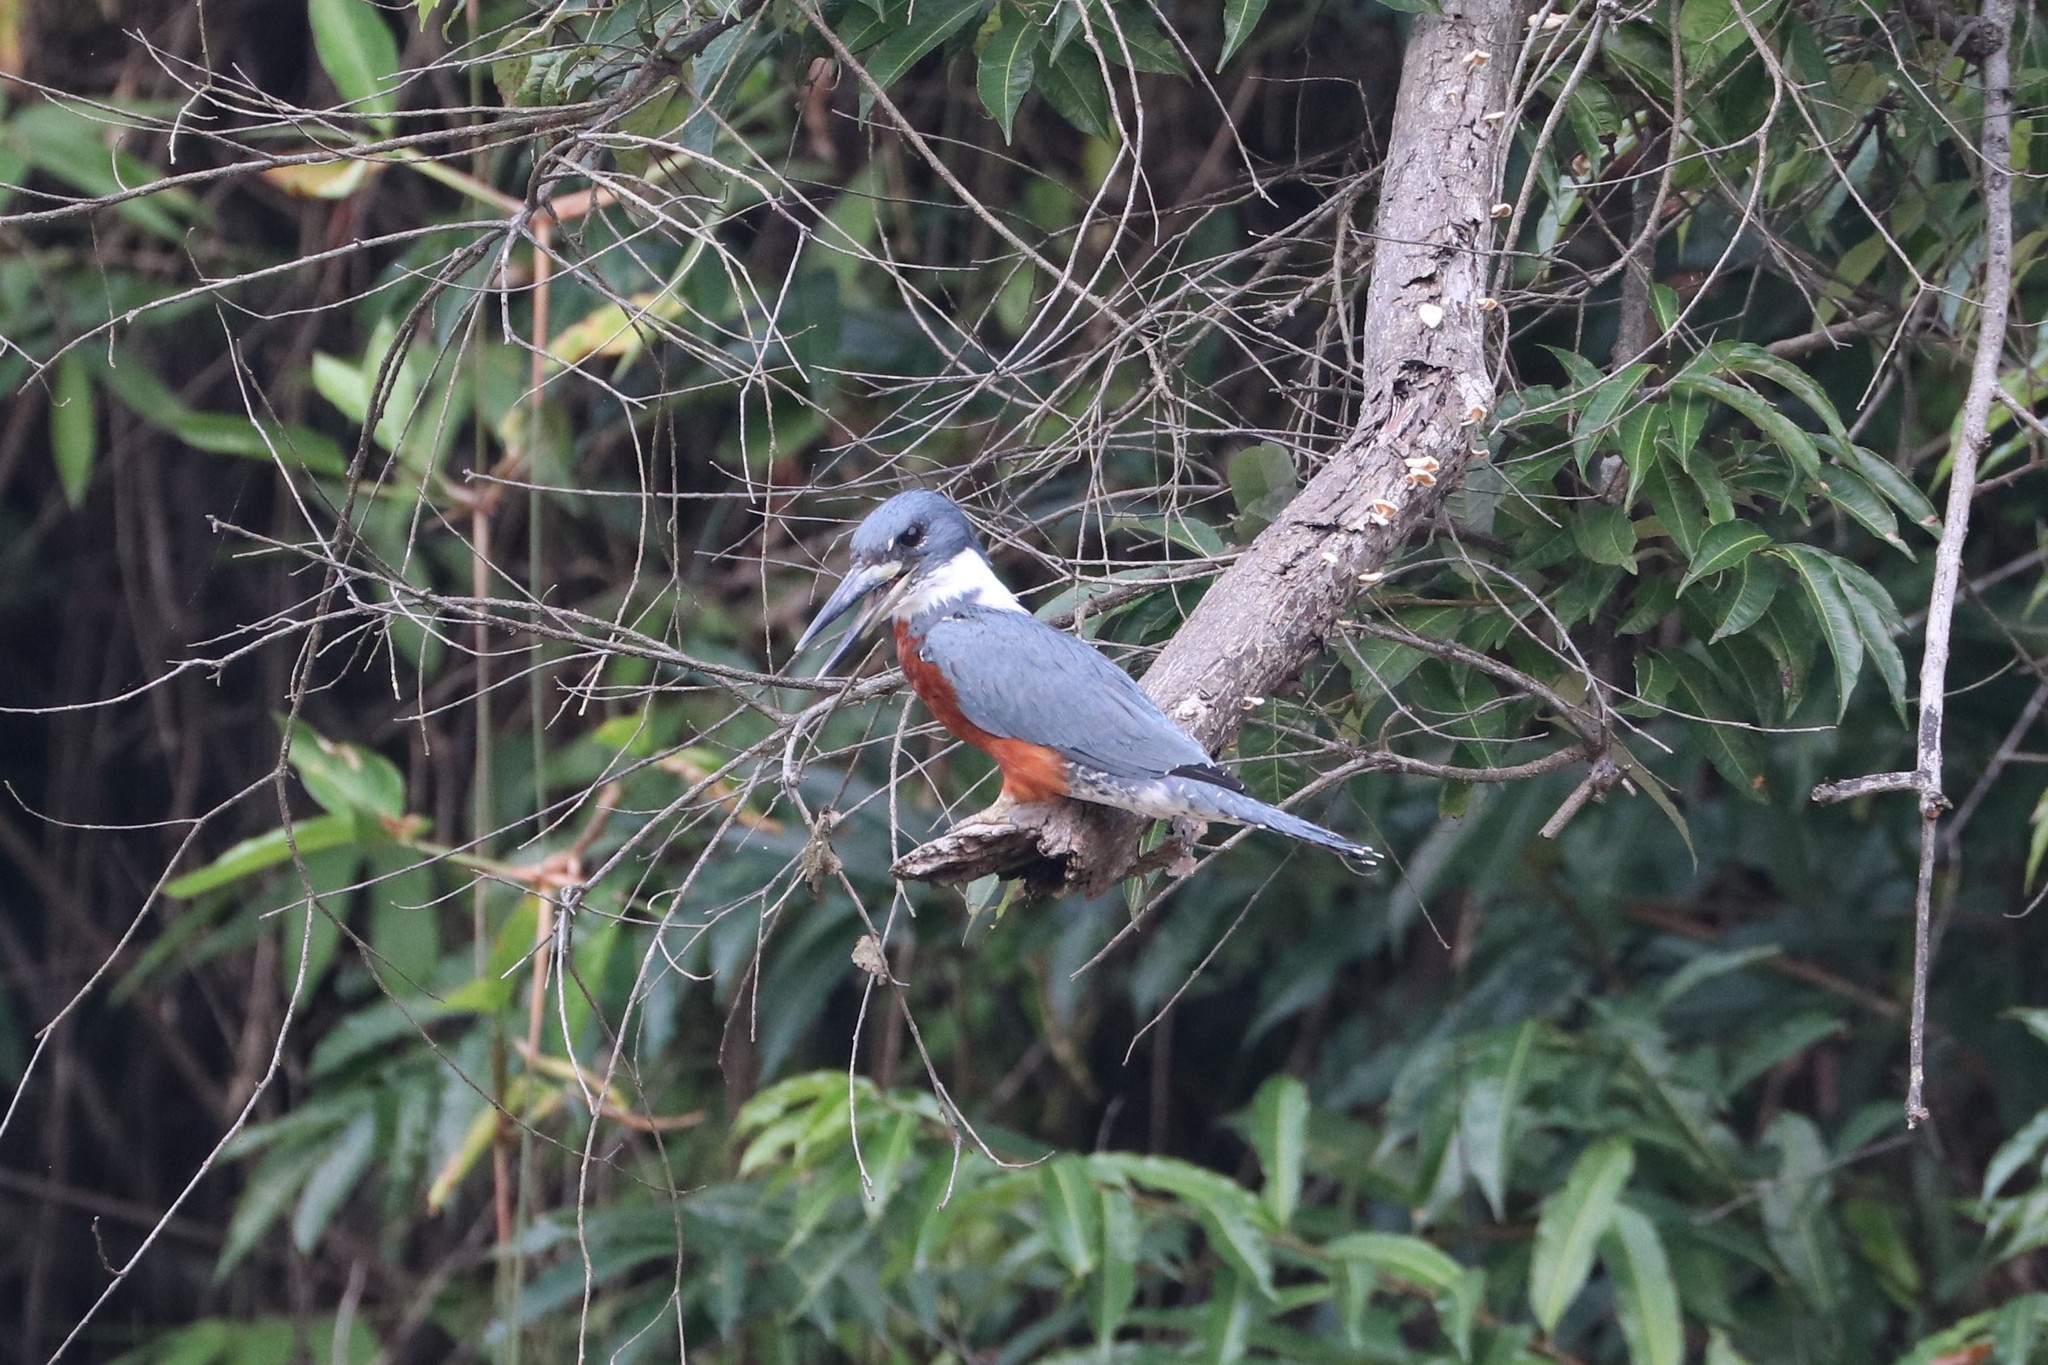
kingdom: Animalia
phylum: Chordata
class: Aves
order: Coraciiformes
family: Alcedinidae
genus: Megaceryle
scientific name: Megaceryle torquata
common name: Ringed kingfisher
